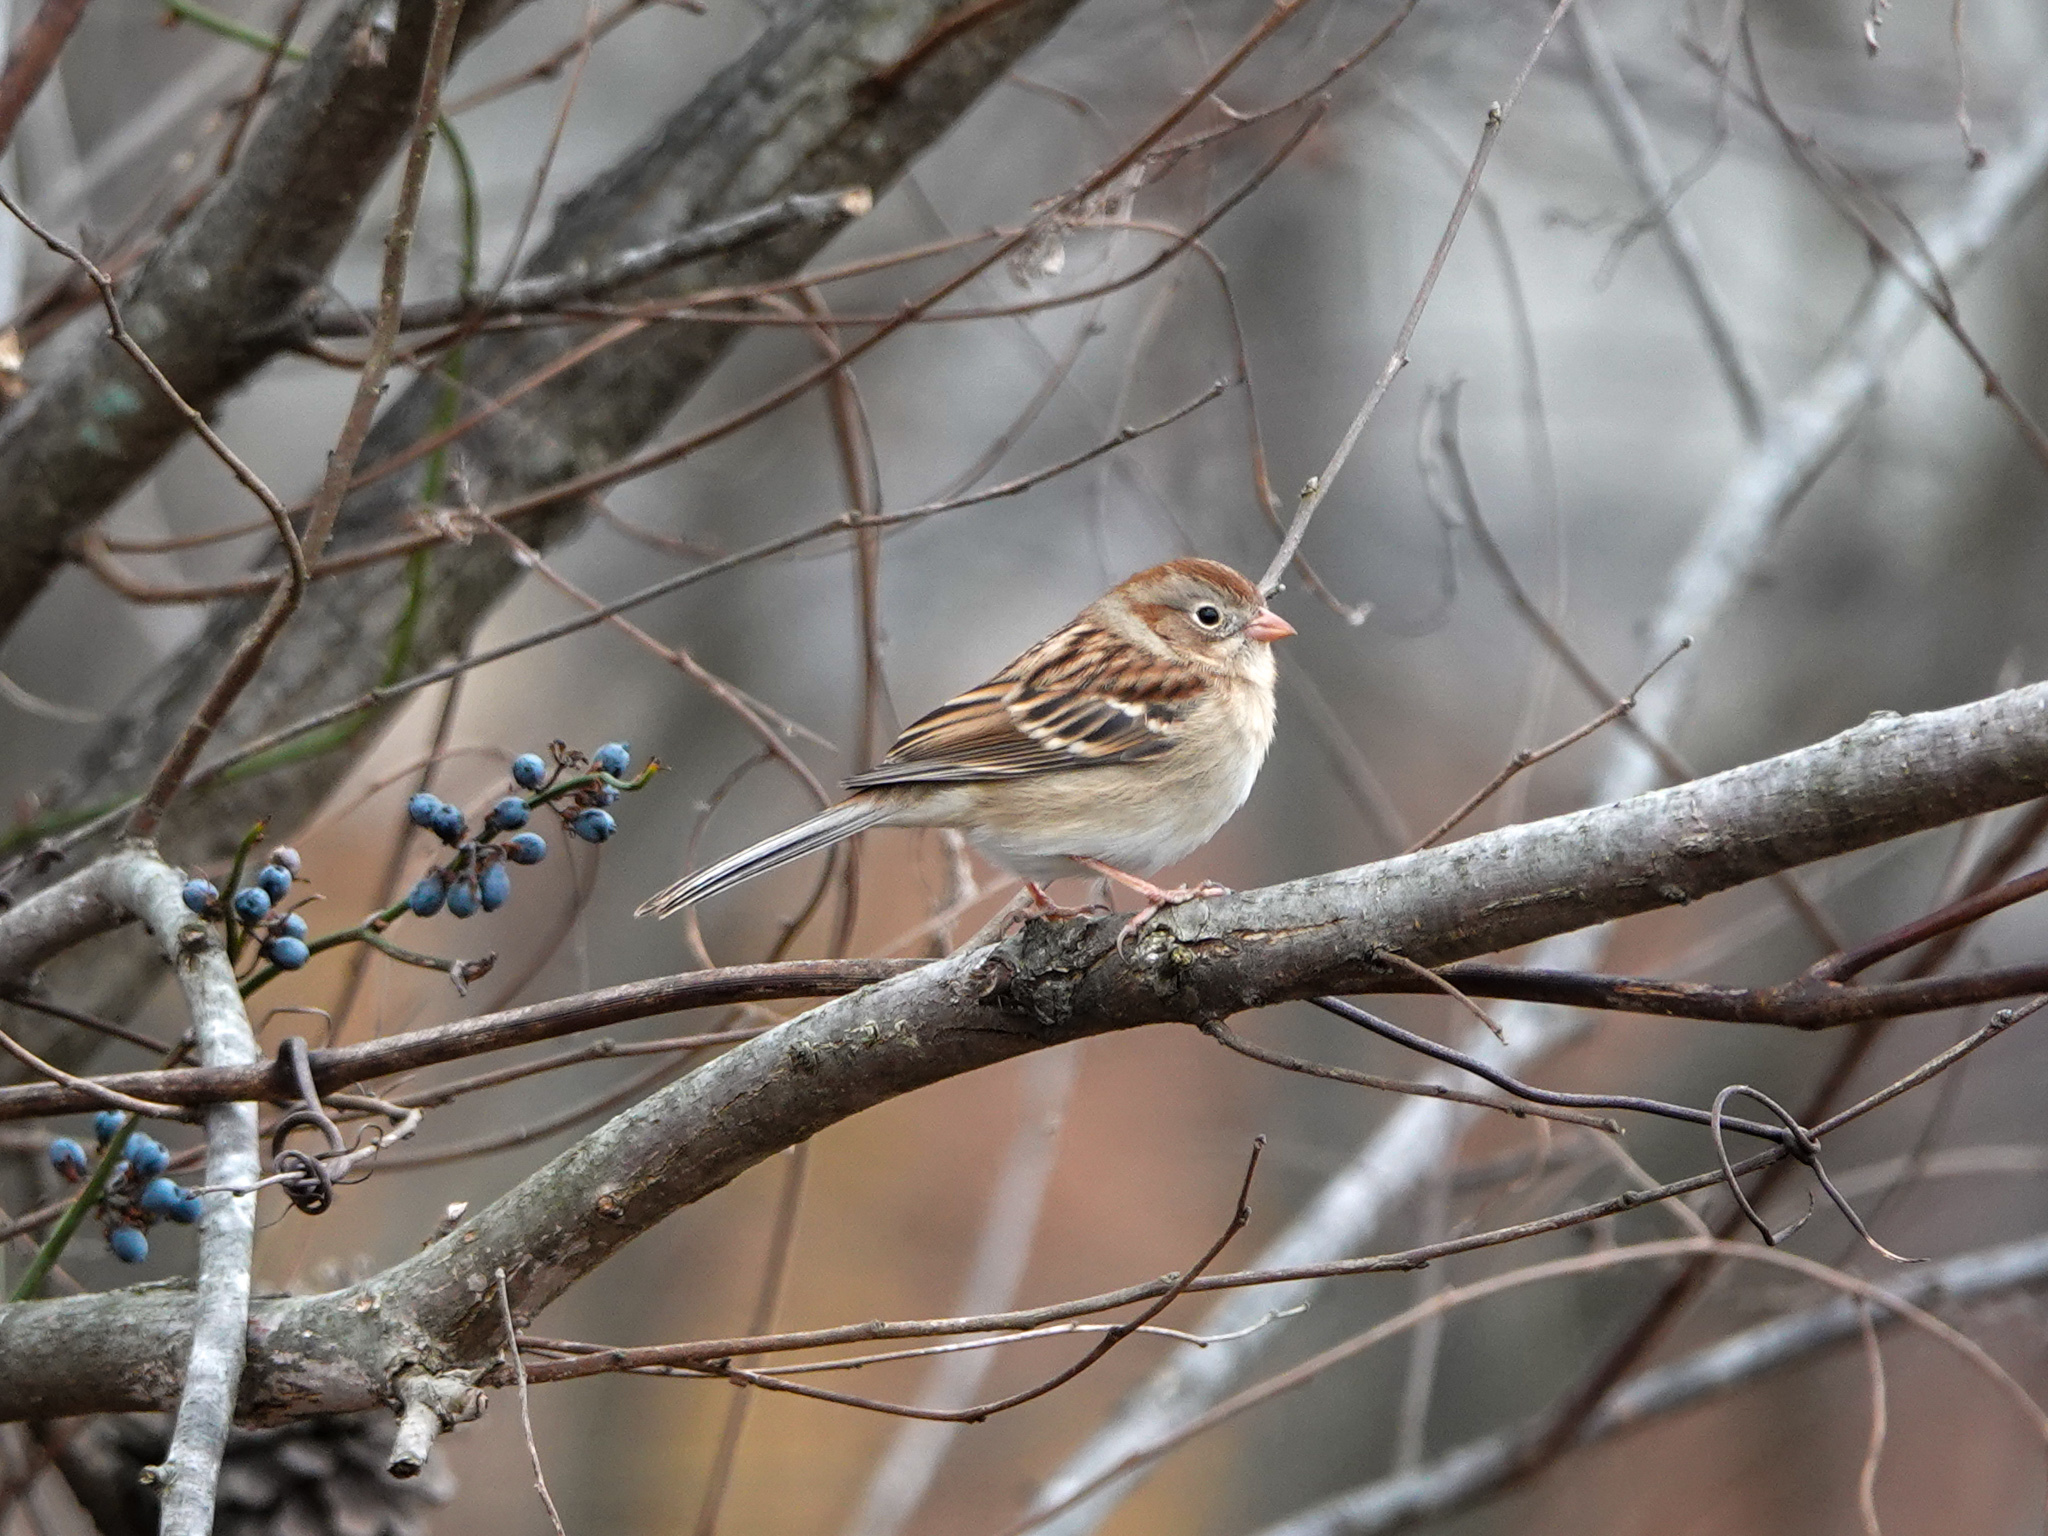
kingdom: Animalia
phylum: Chordata
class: Aves
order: Passeriformes
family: Passerellidae
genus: Spizella
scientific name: Spizella pusilla
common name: Field sparrow
